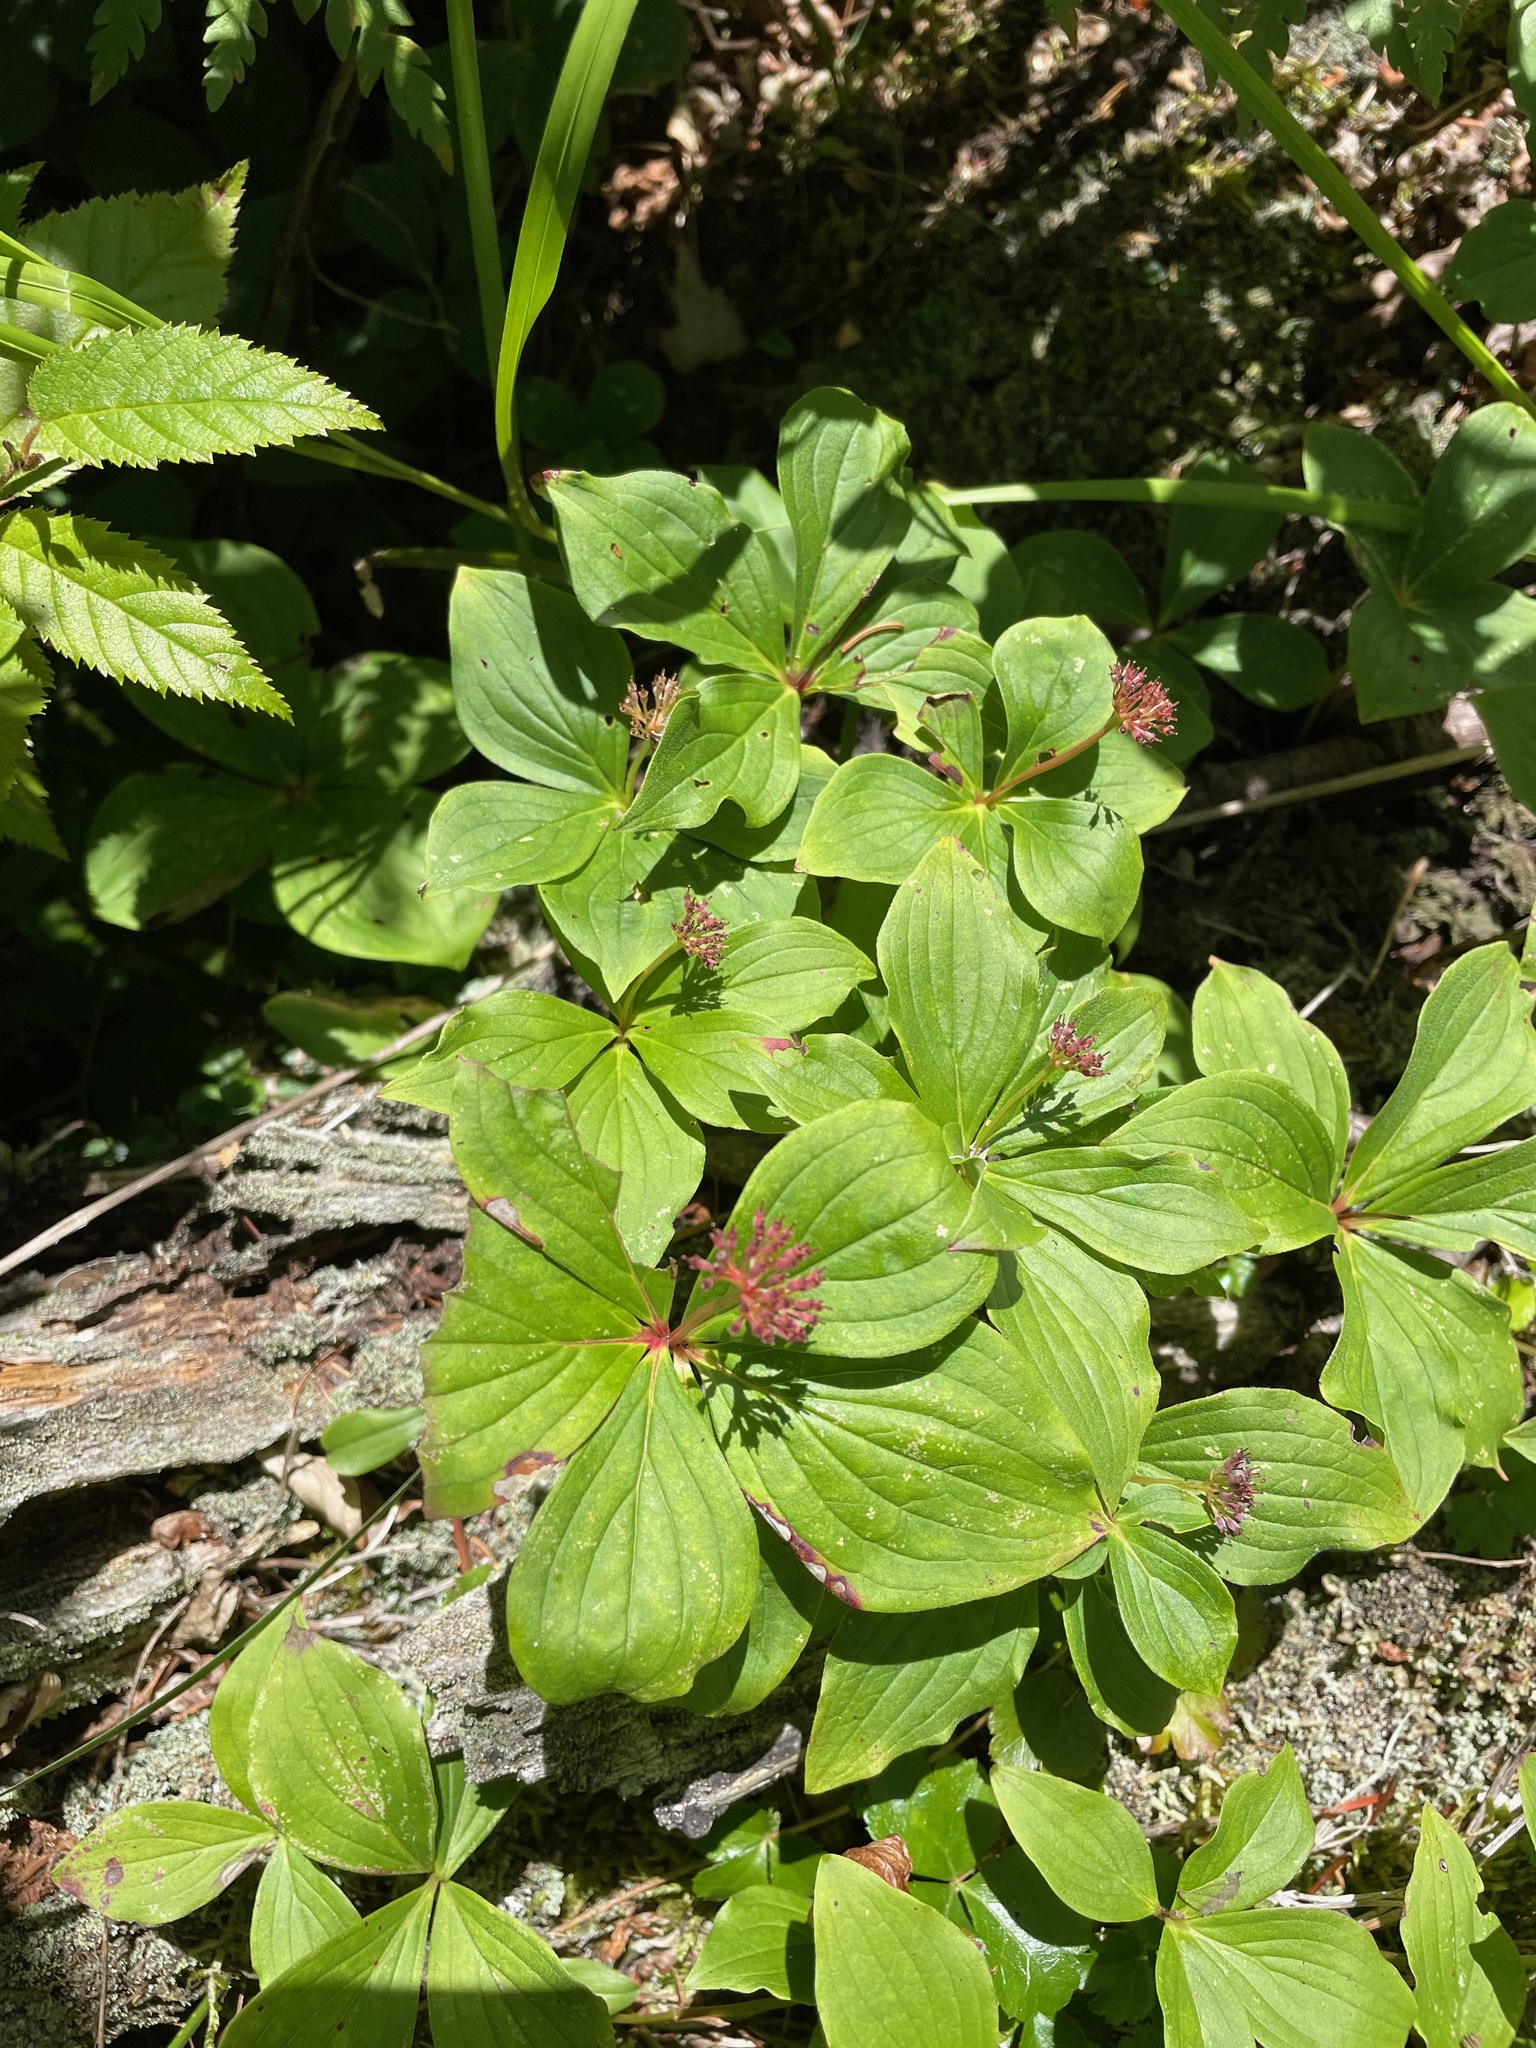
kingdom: Plantae
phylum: Tracheophyta
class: Magnoliopsida
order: Cornales
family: Cornaceae
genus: Cornus
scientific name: Cornus canadensis
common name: Creeping dogwood
